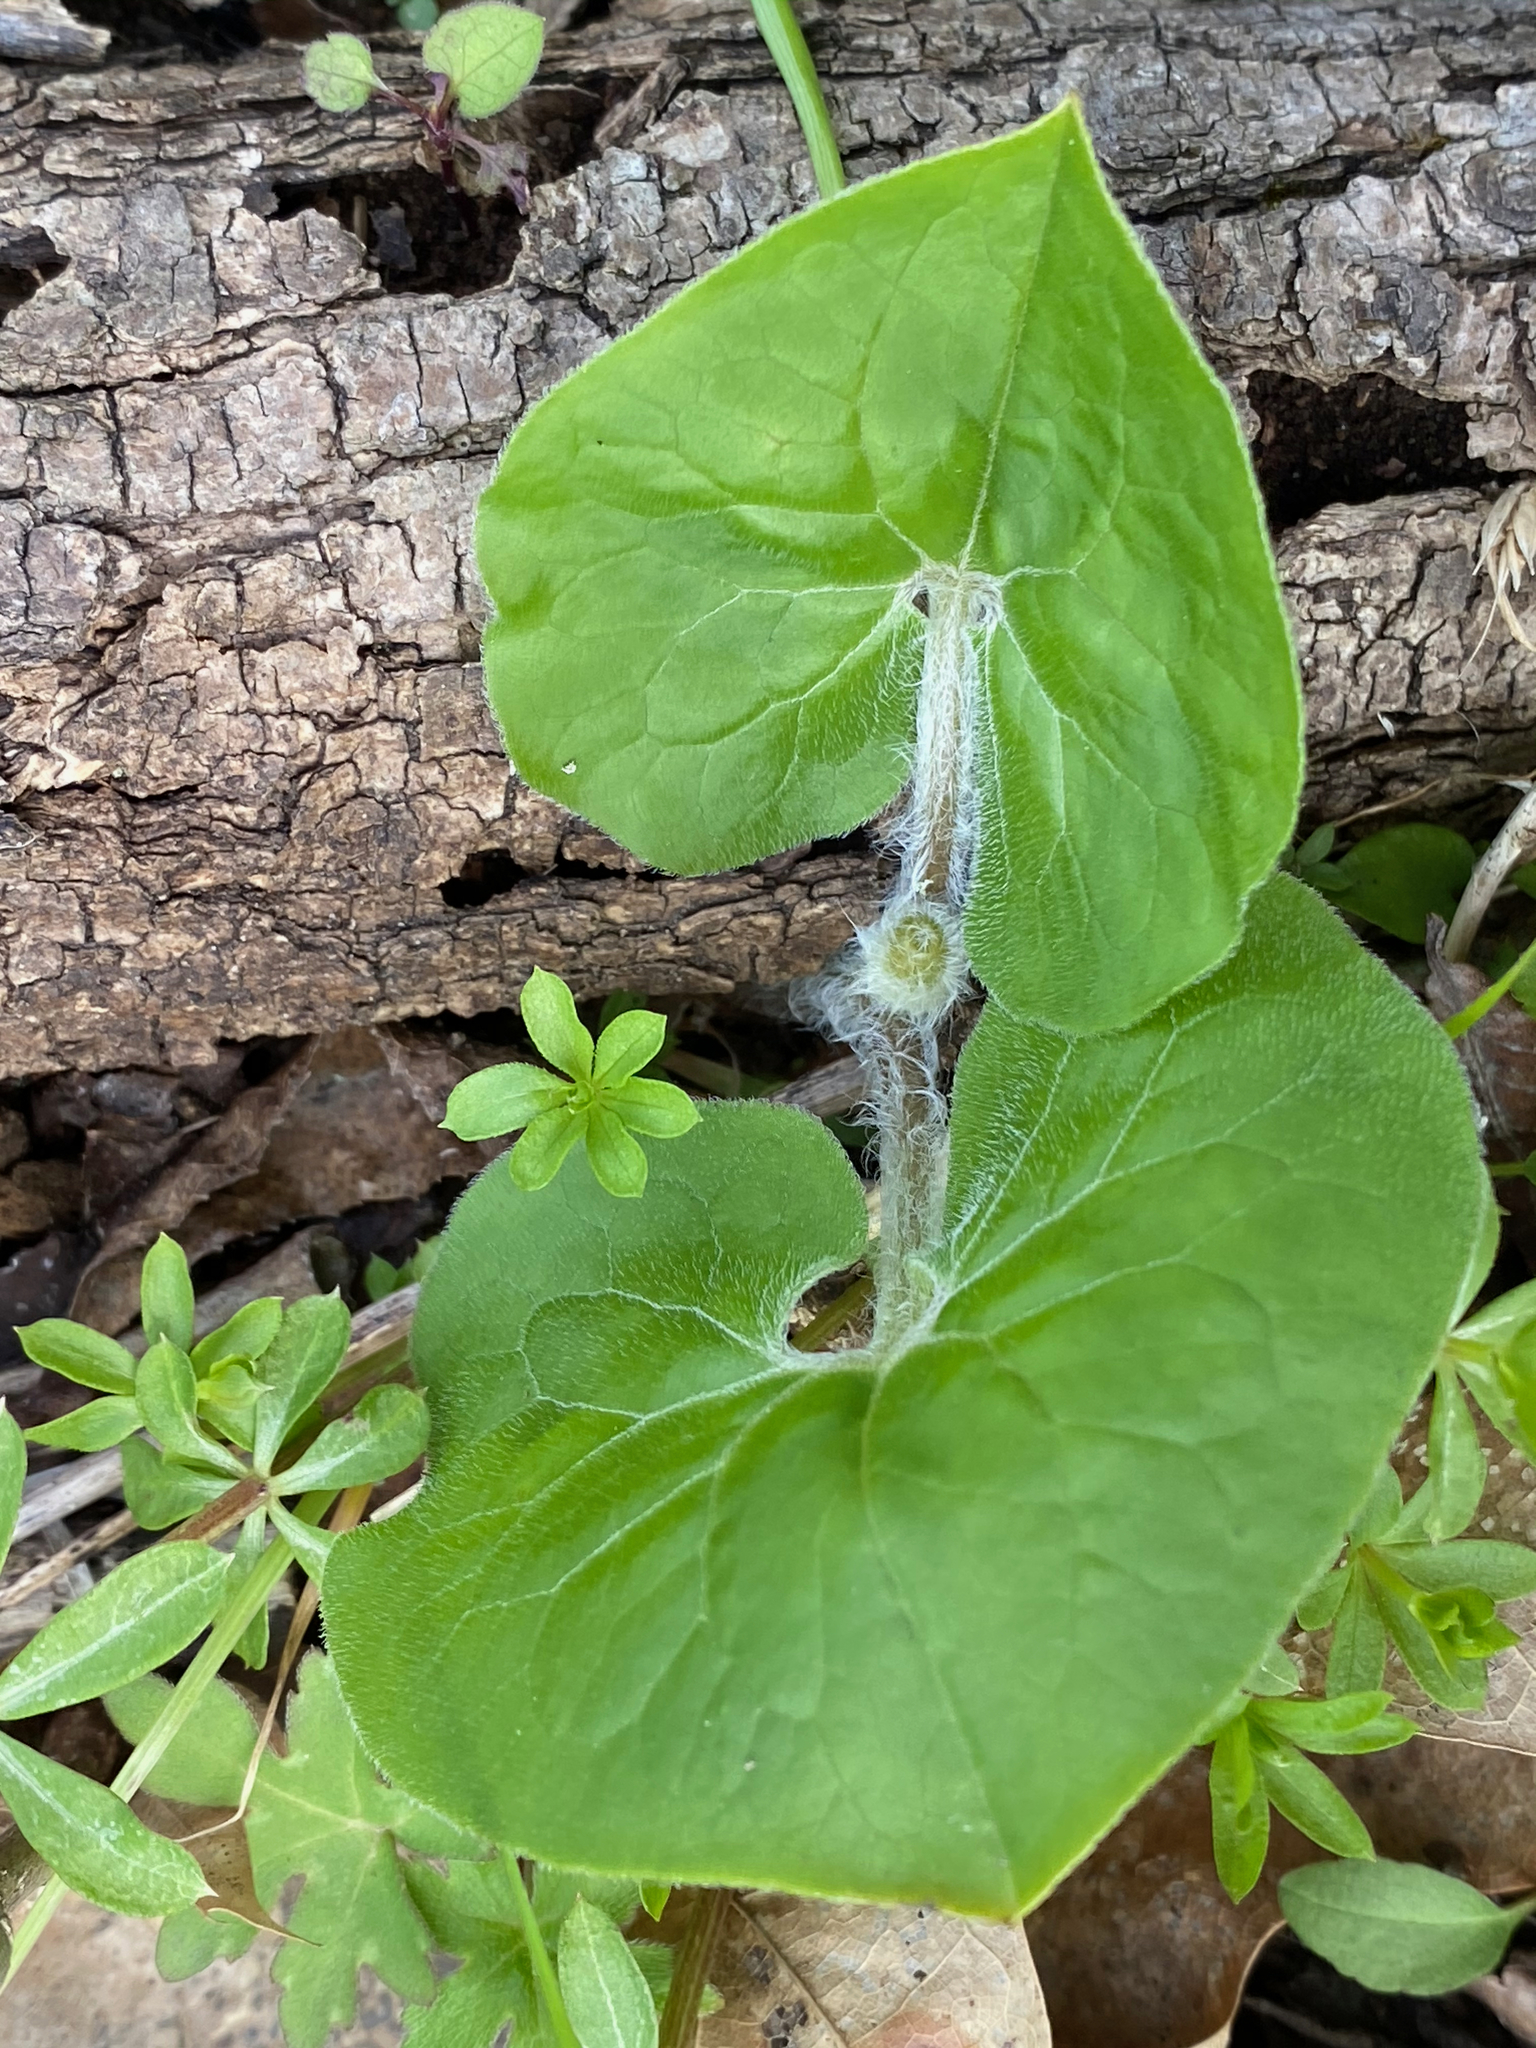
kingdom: Plantae
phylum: Tracheophyta
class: Magnoliopsida
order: Piperales
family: Aristolochiaceae
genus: Asarum
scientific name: Asarum canadense
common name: Wild ginger
